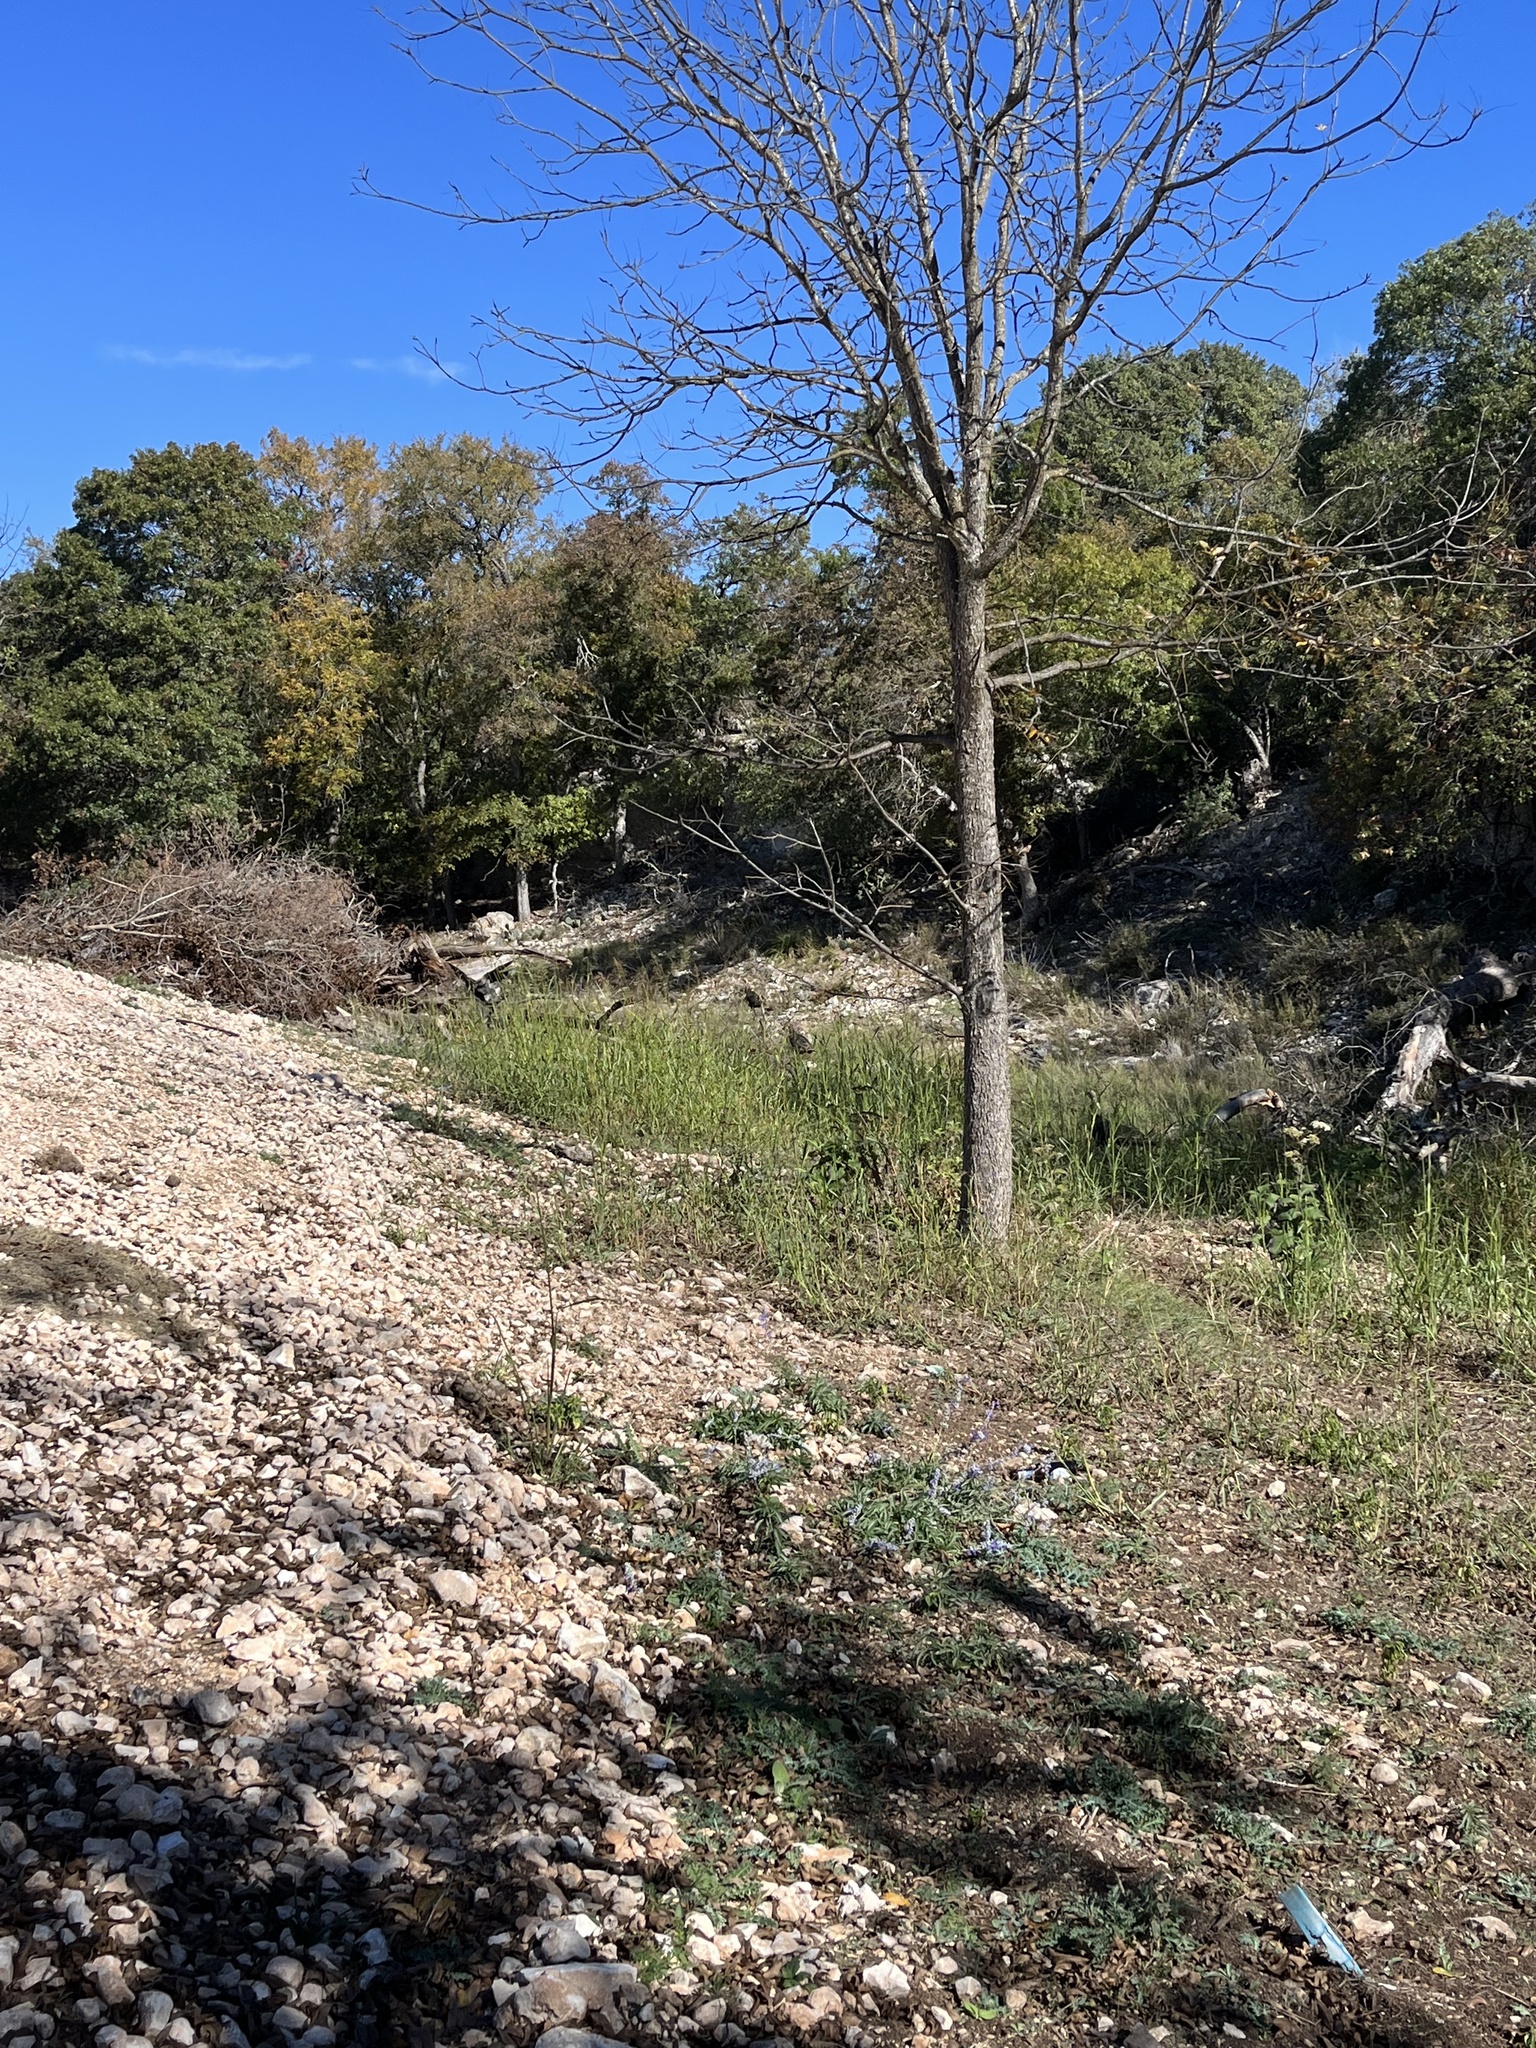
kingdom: Animalia
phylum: Chordata
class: Aves
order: Galliformes
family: Phasianidae
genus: Meleagris
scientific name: Meleagris gallopavo
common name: Wild turkey
